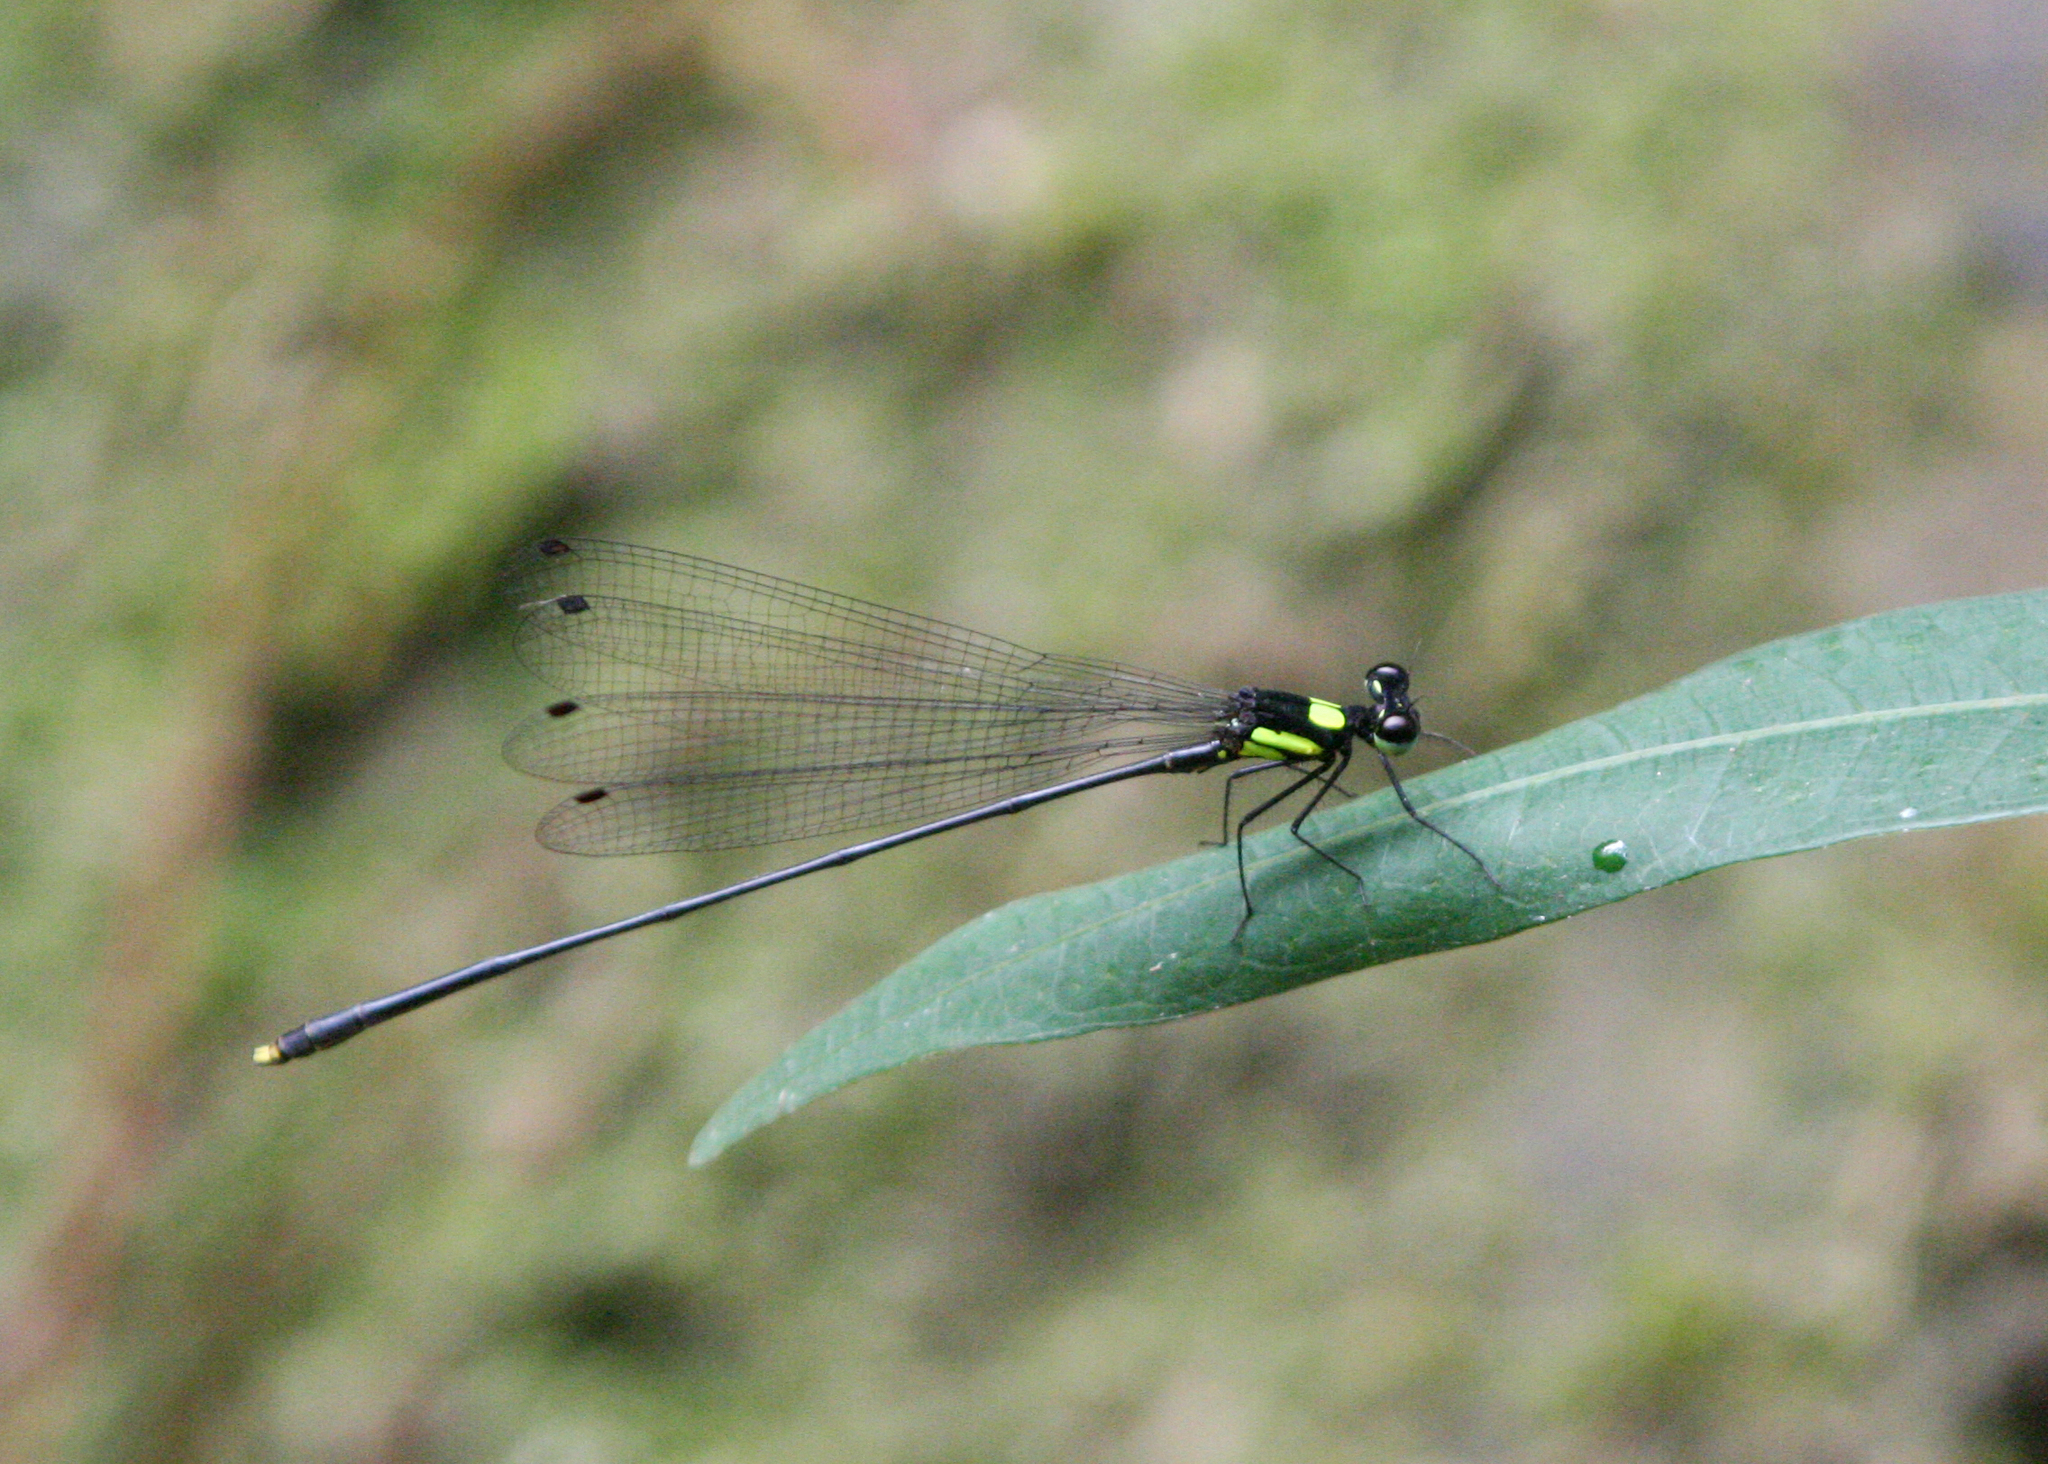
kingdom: Animalia
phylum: Arthropoda
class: Insecta
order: Odonata
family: Platycnemididae
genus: Coeliccia
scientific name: Coeliccia yamasakii
